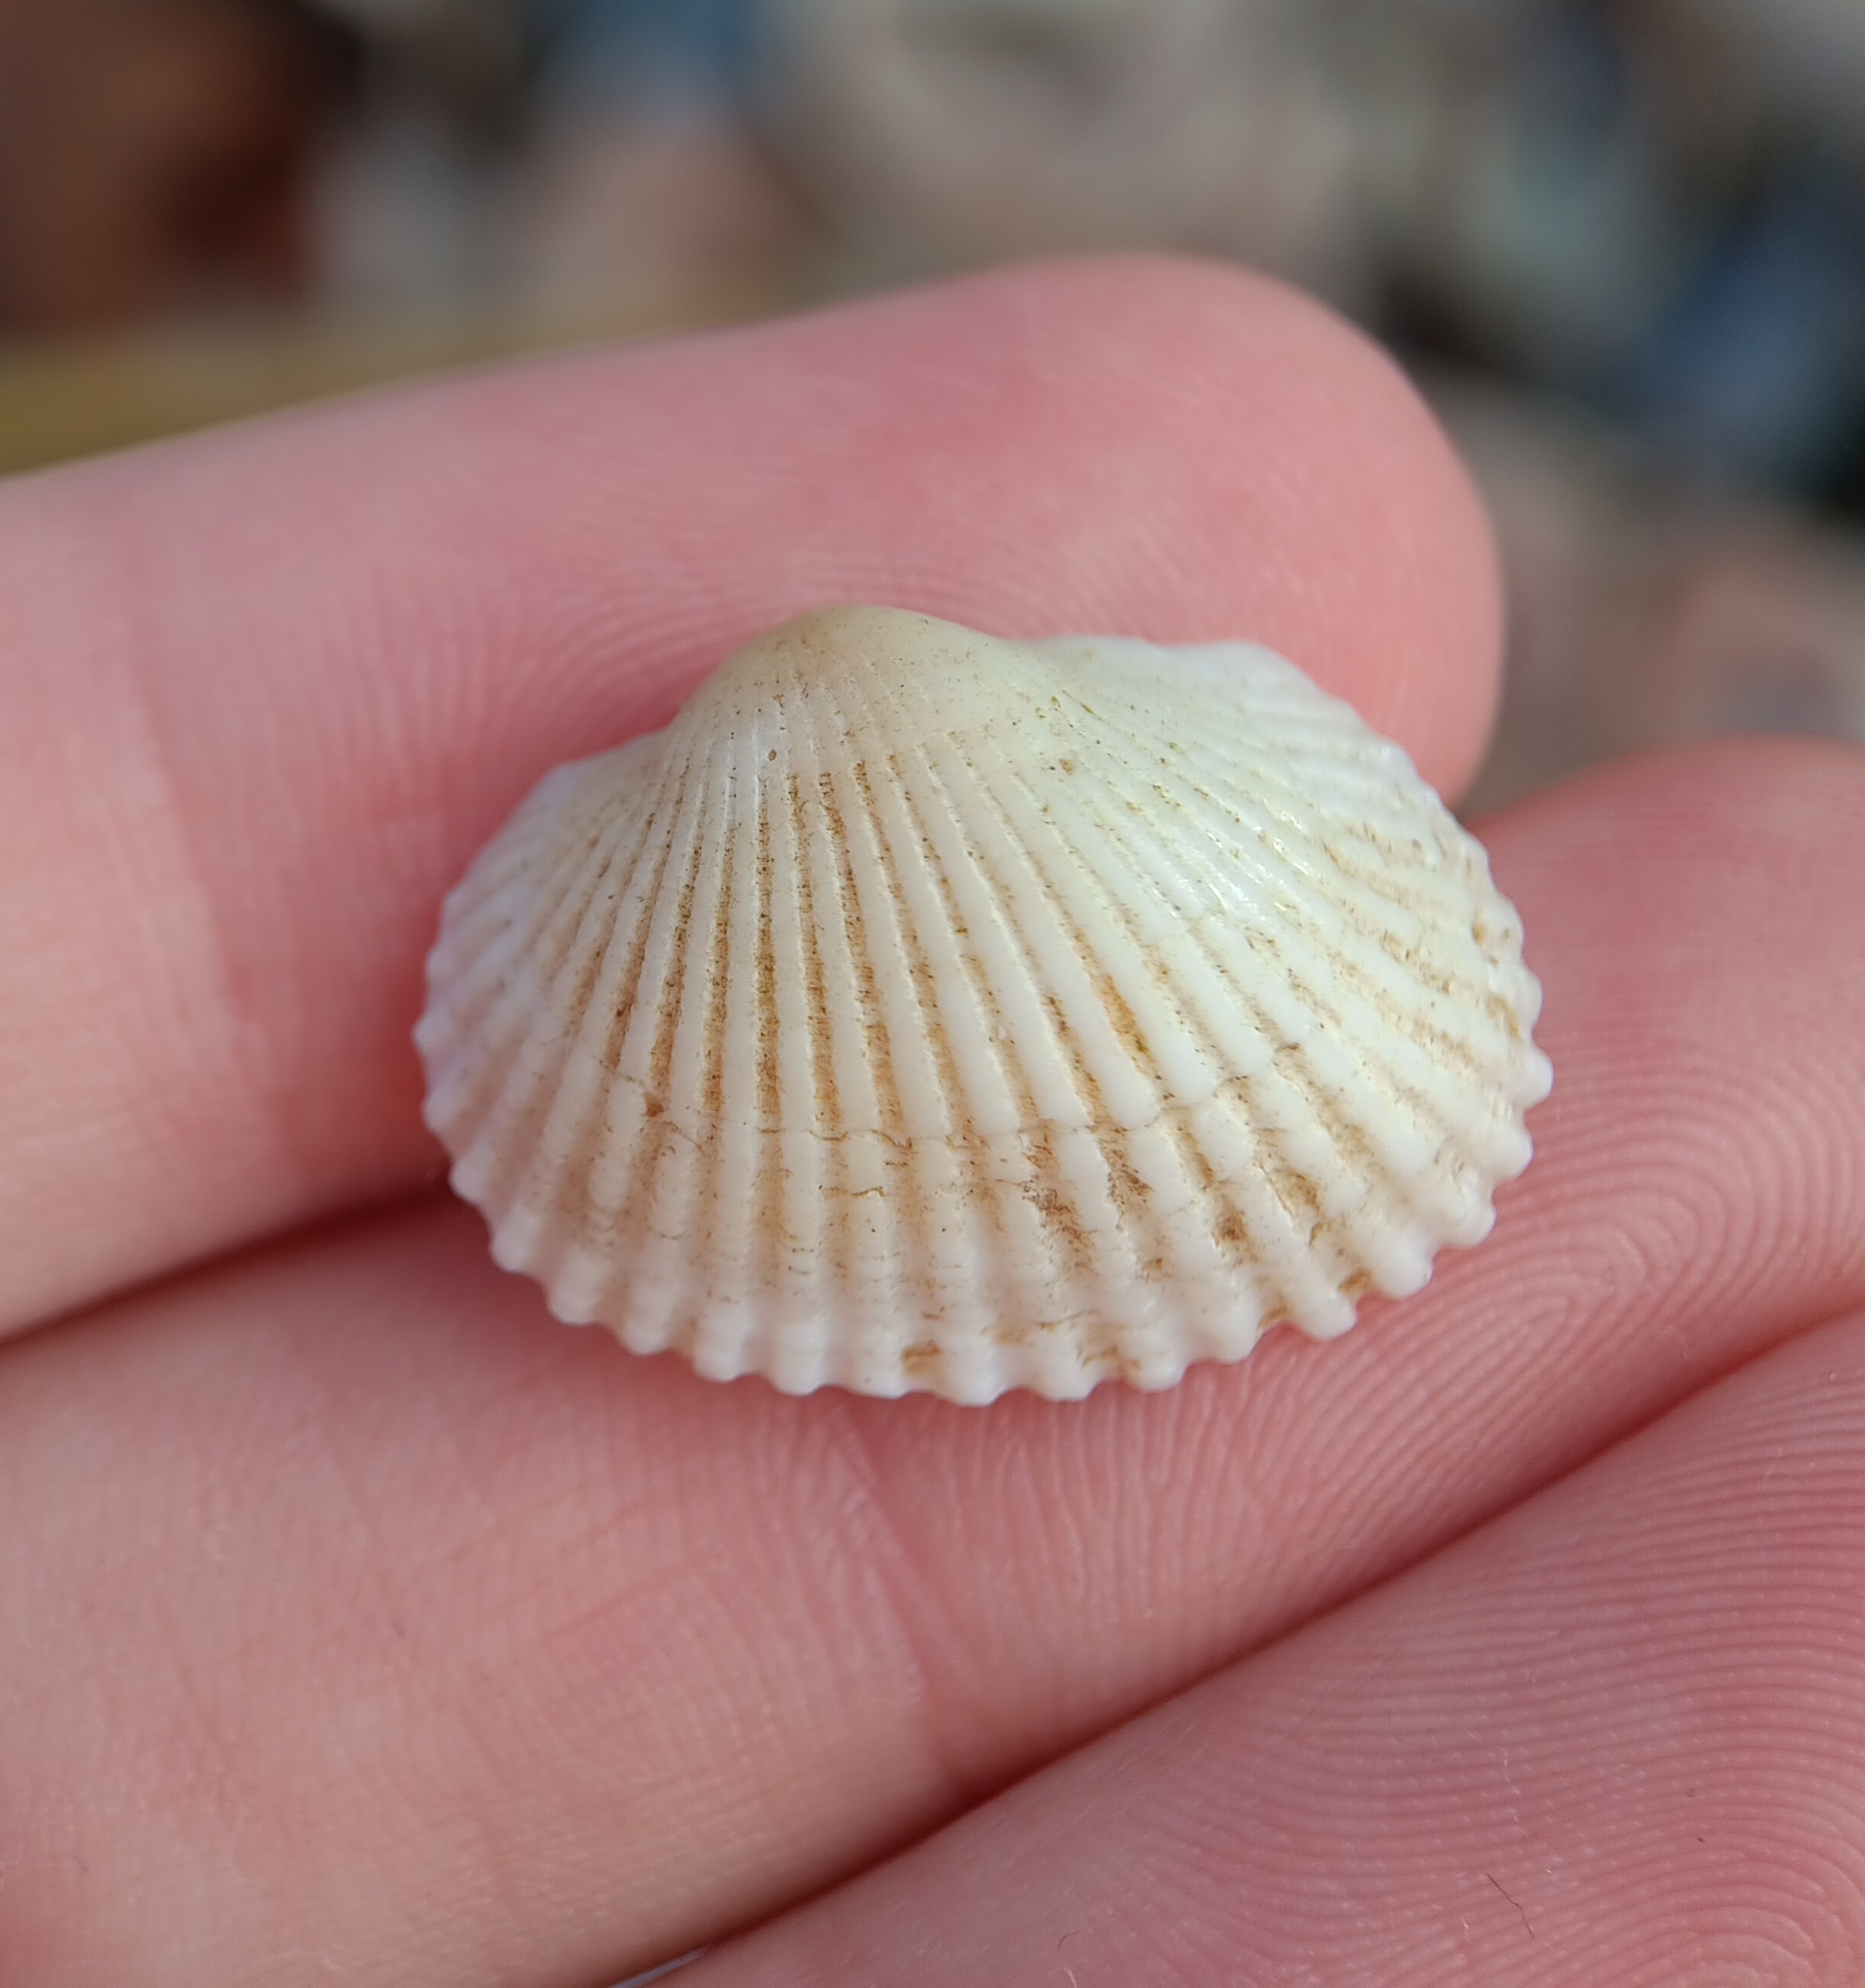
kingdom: Animalia
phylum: Mollusca
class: Bivalvia
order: Arcida
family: Arcidae
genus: Anadara
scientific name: Anadara transversa
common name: Transverse ark
